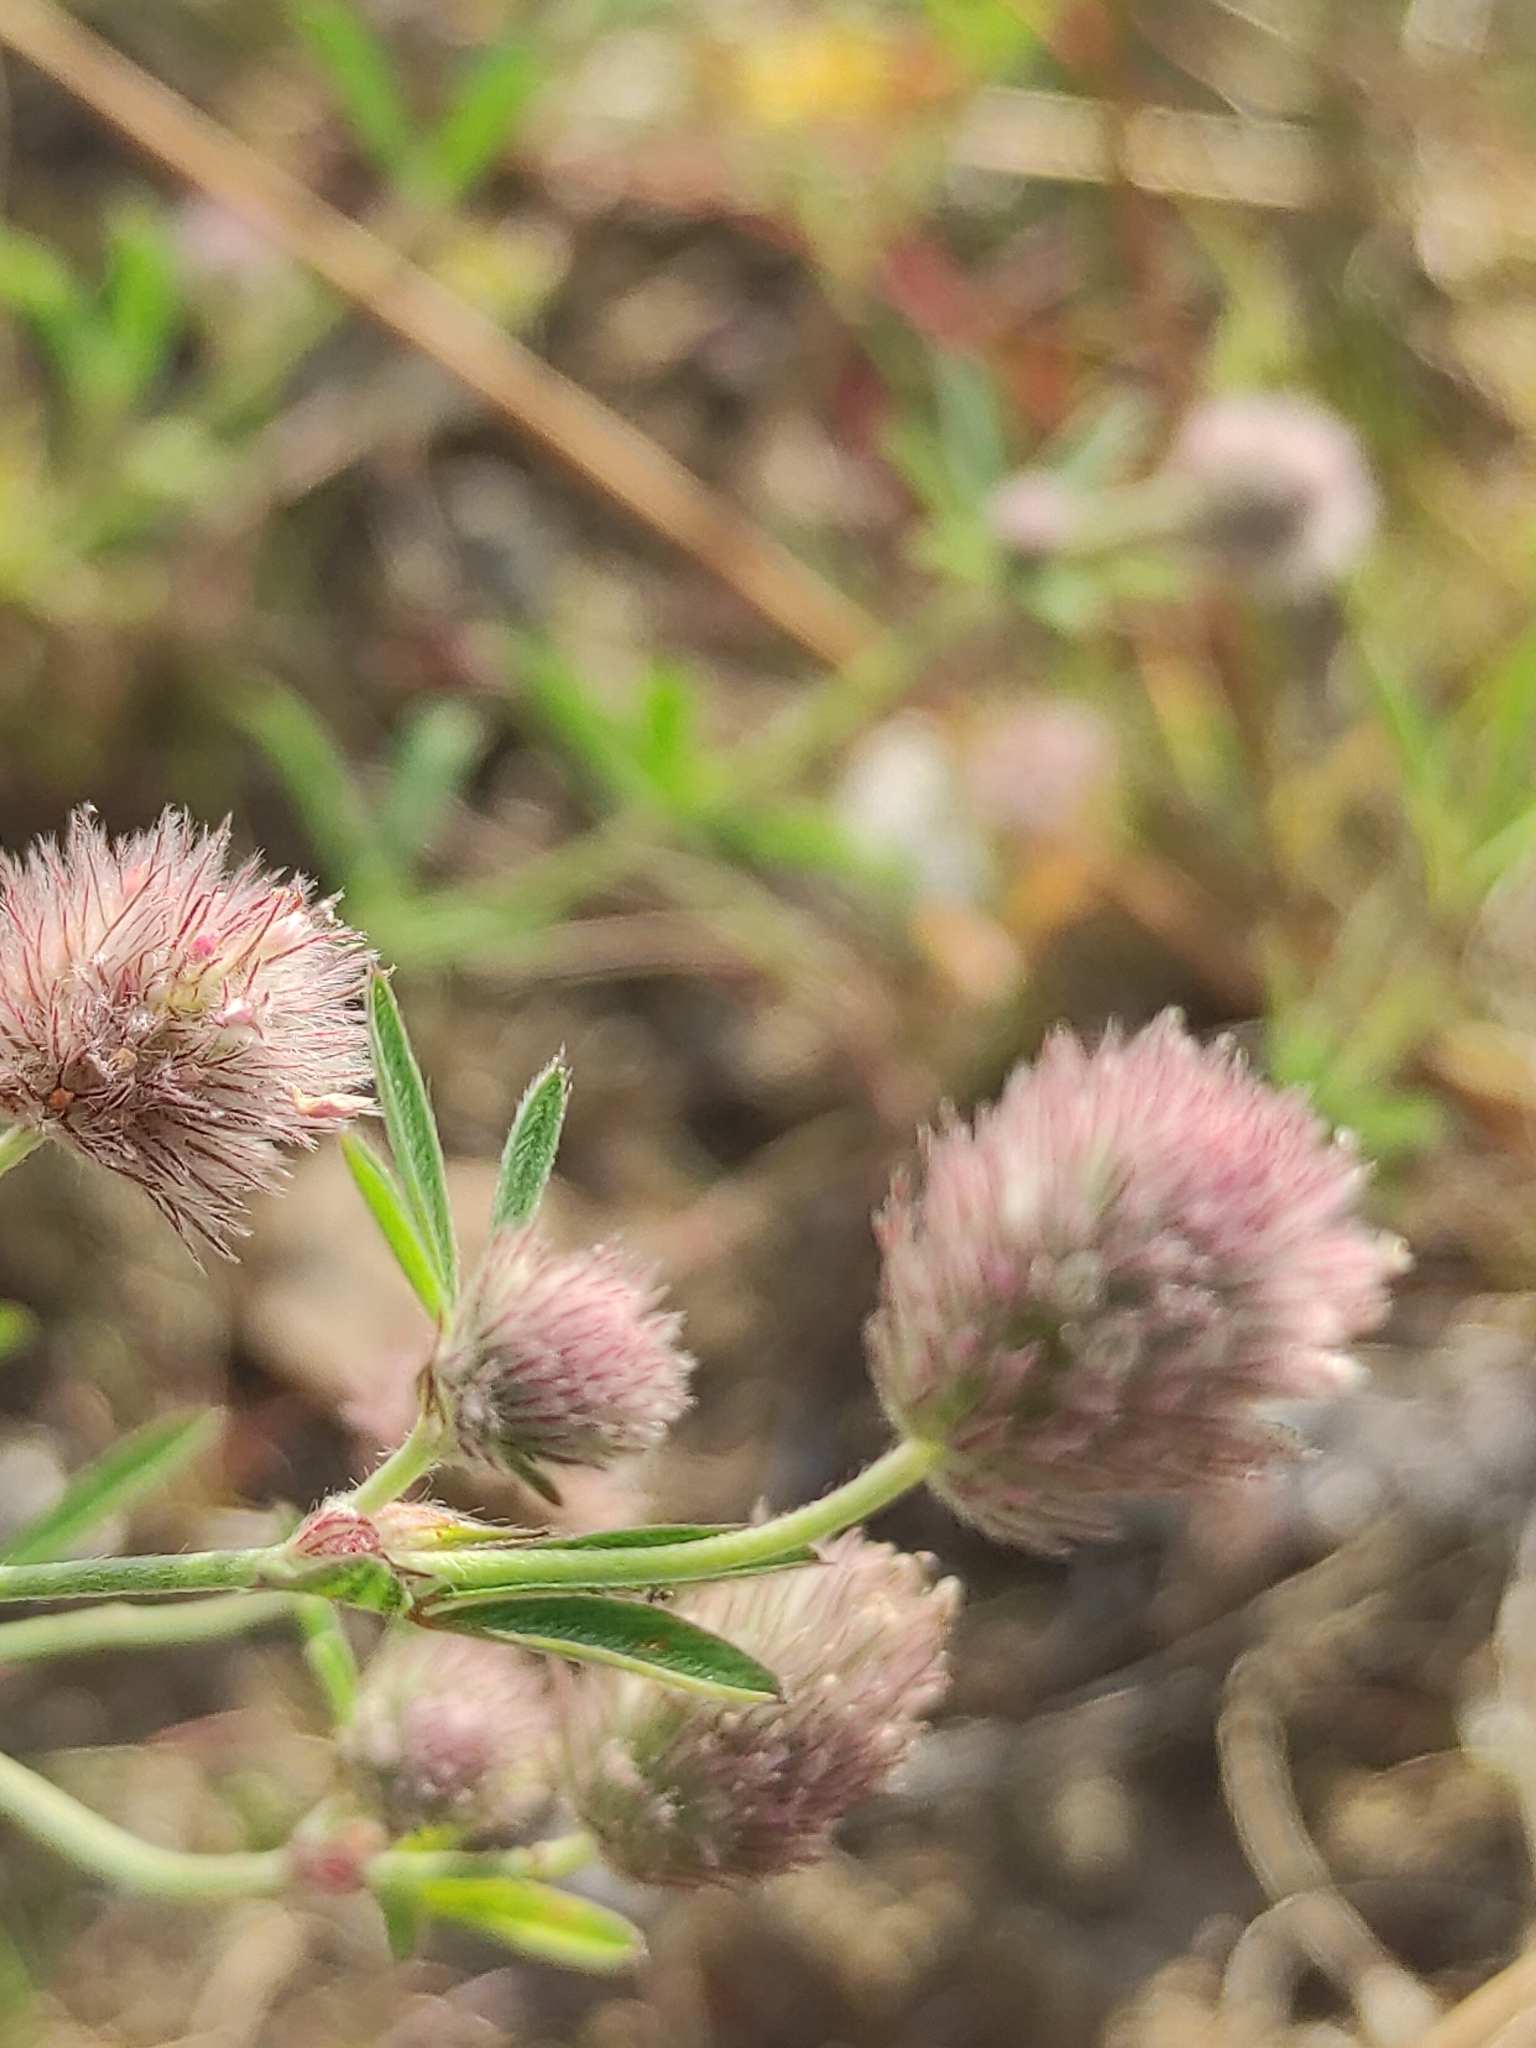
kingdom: Plantae
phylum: Tracheophyta
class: Magnoliopsida
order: Fabales
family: Fabaceae
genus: Trifolium
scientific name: Trifolium arvense
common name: Hare's-foot clover
